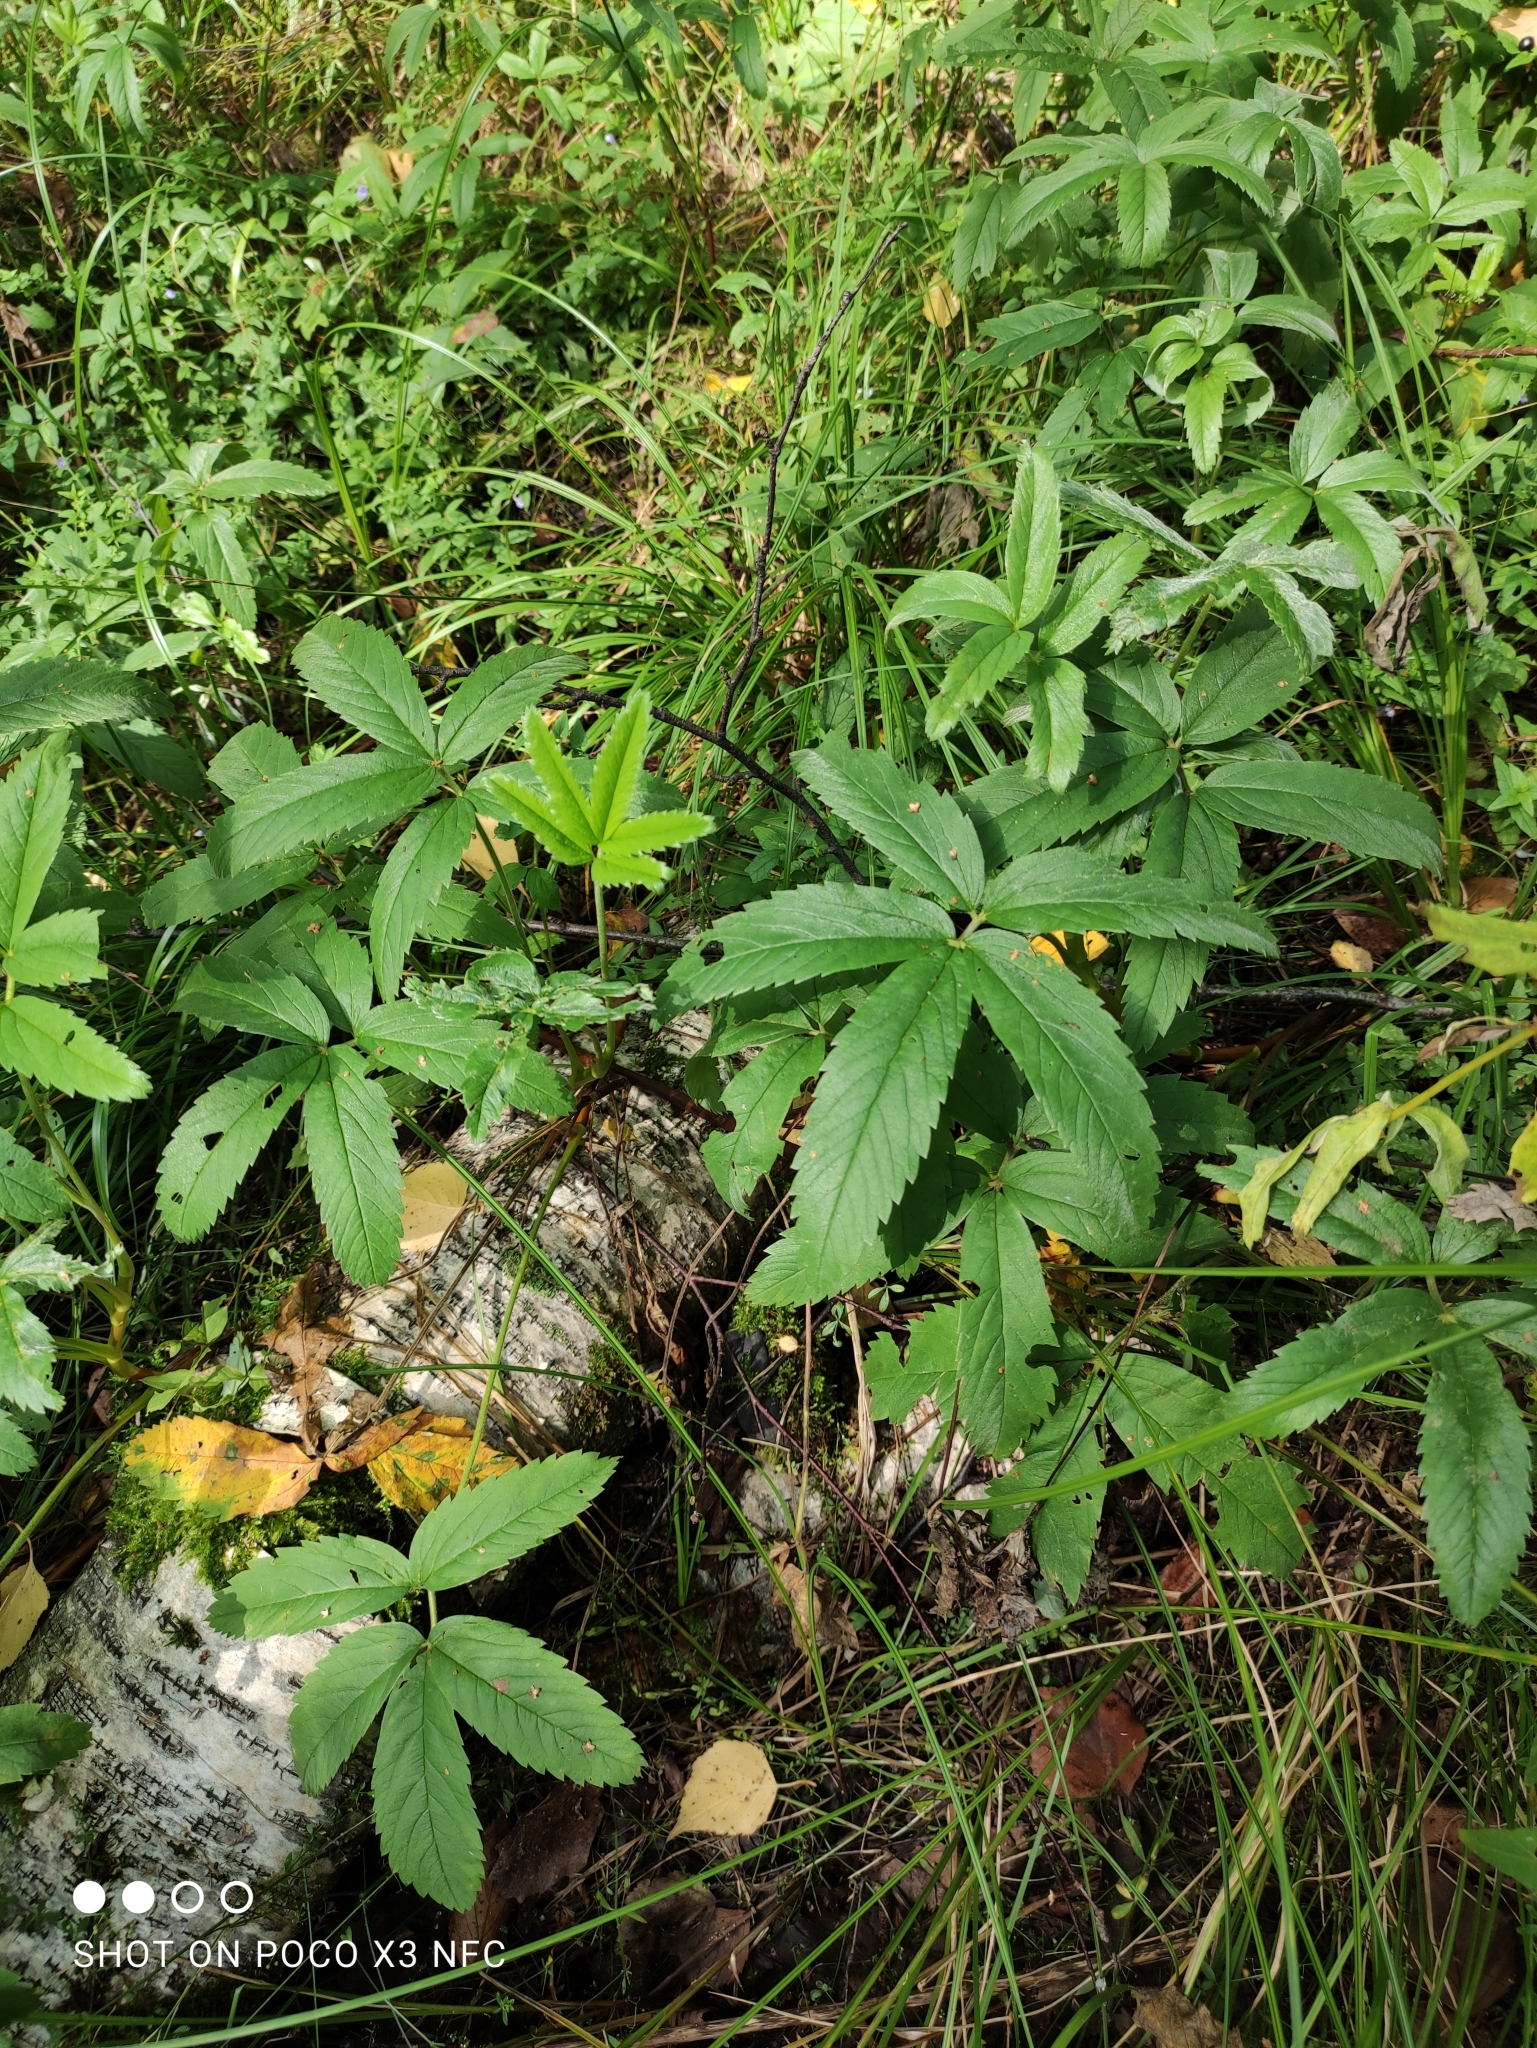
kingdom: Plantae
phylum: Tracheophyta
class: Magnoliopsida
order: Rosales
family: Rosaceae
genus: Comarum
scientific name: Comarum palustre
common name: Marsh cinquefoil
